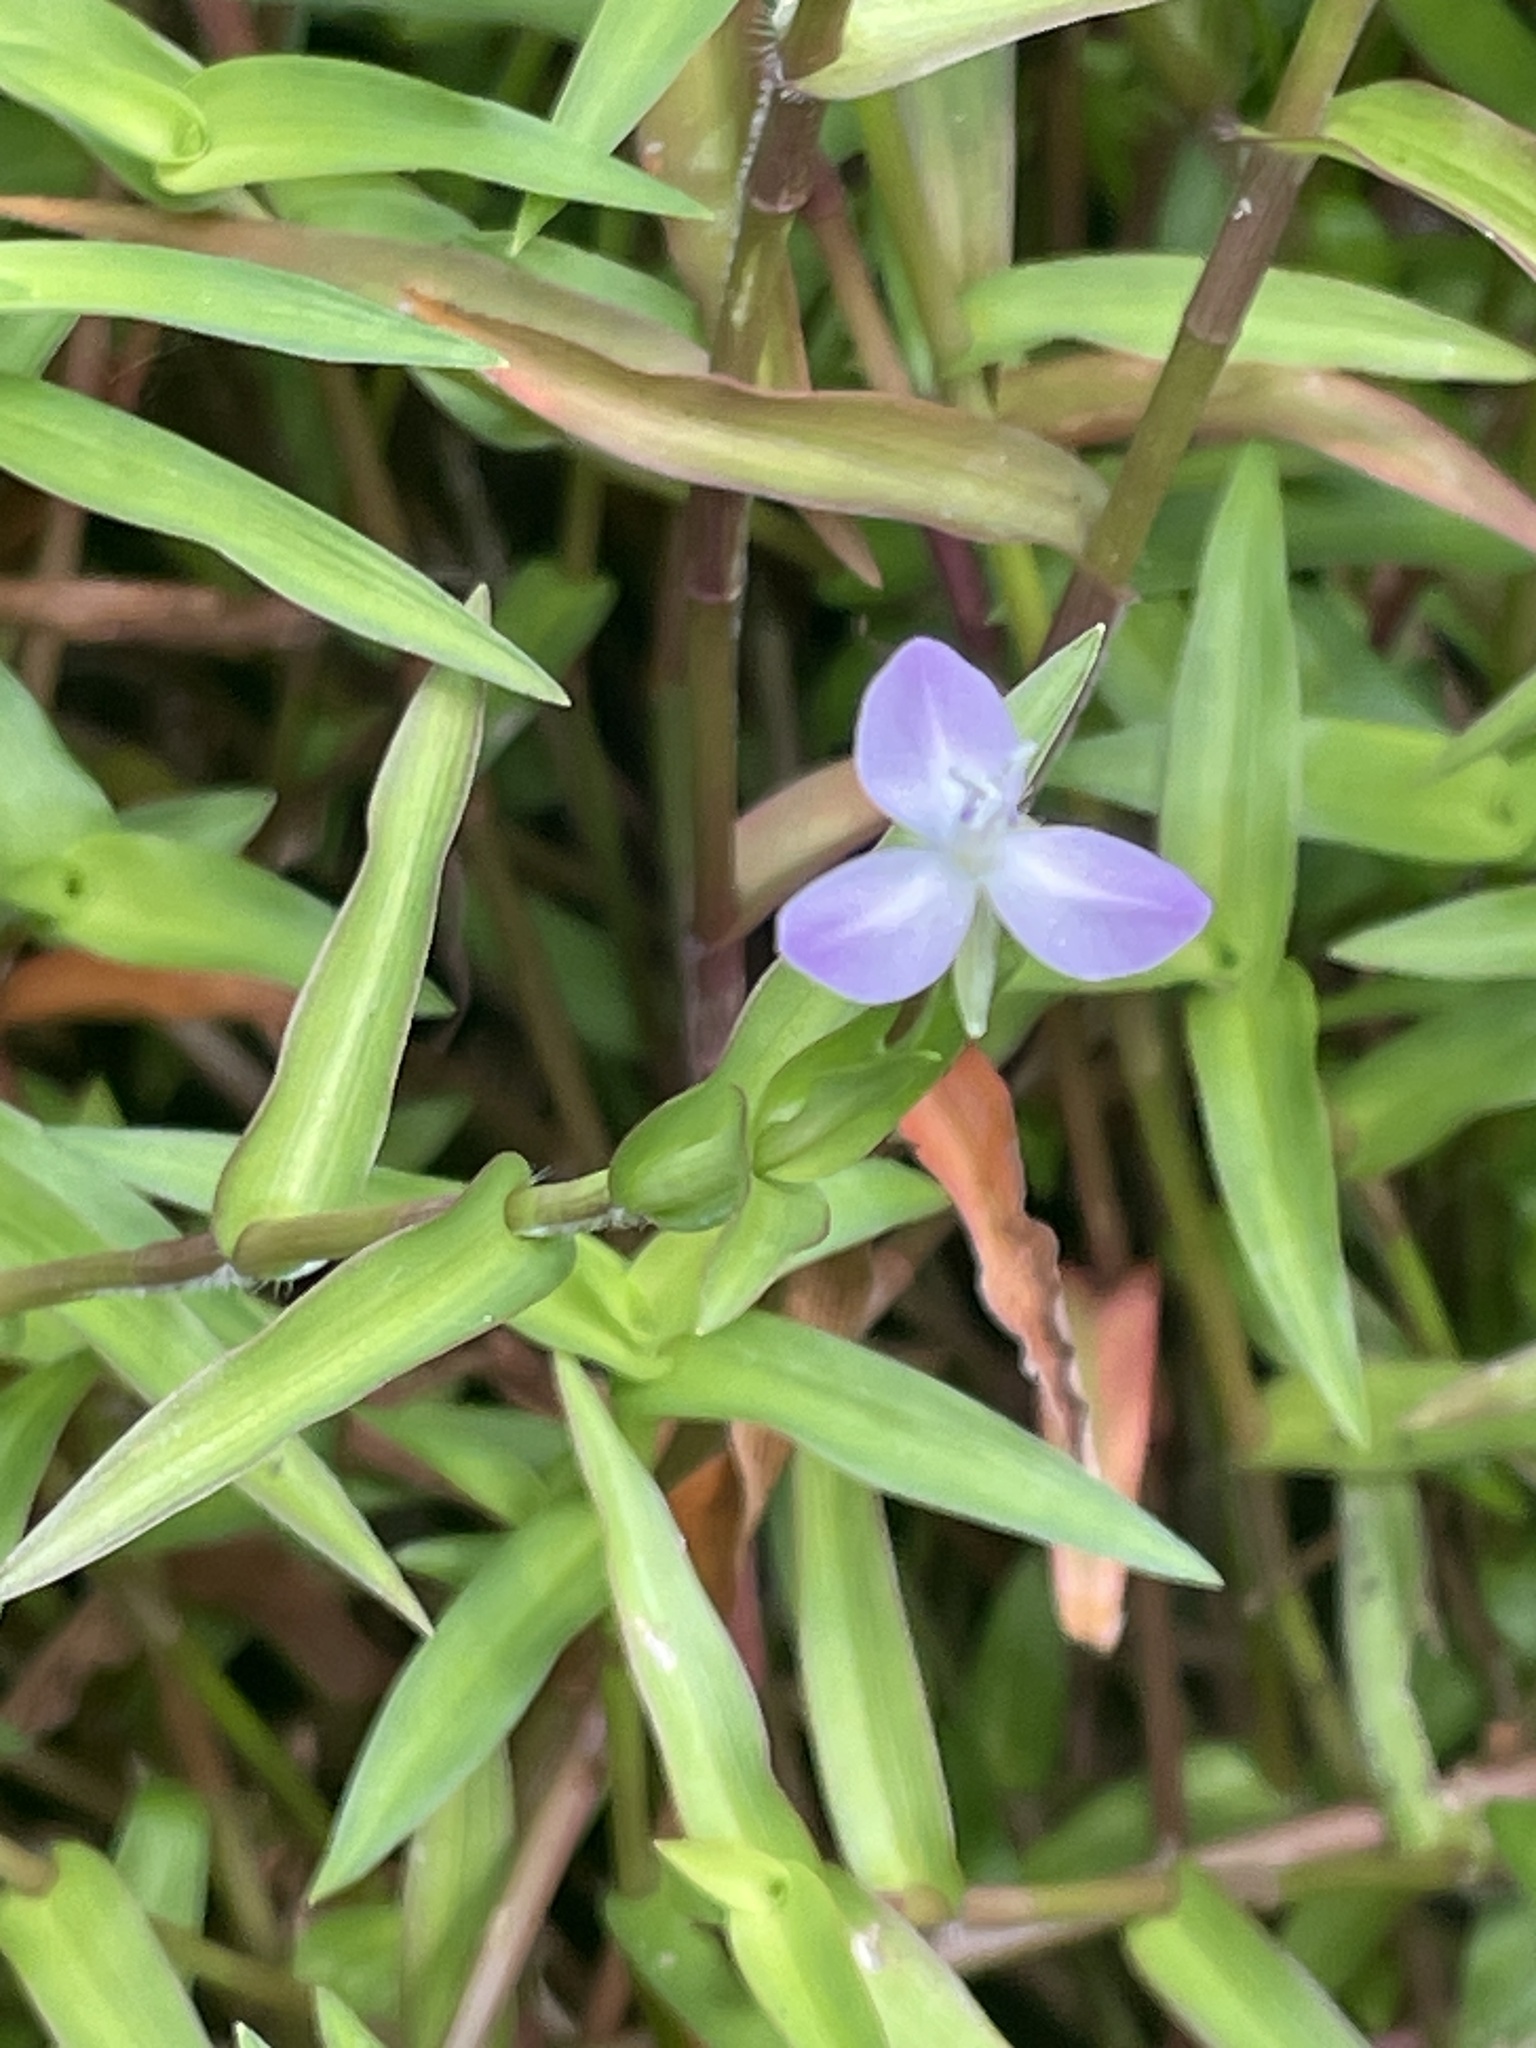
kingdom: Plantae
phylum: Tracheophyta
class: Liliopsida
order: Commelinales
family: Commelinaceae
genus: Murdannia
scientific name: Murdannia keisak
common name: Wartremoving herb
